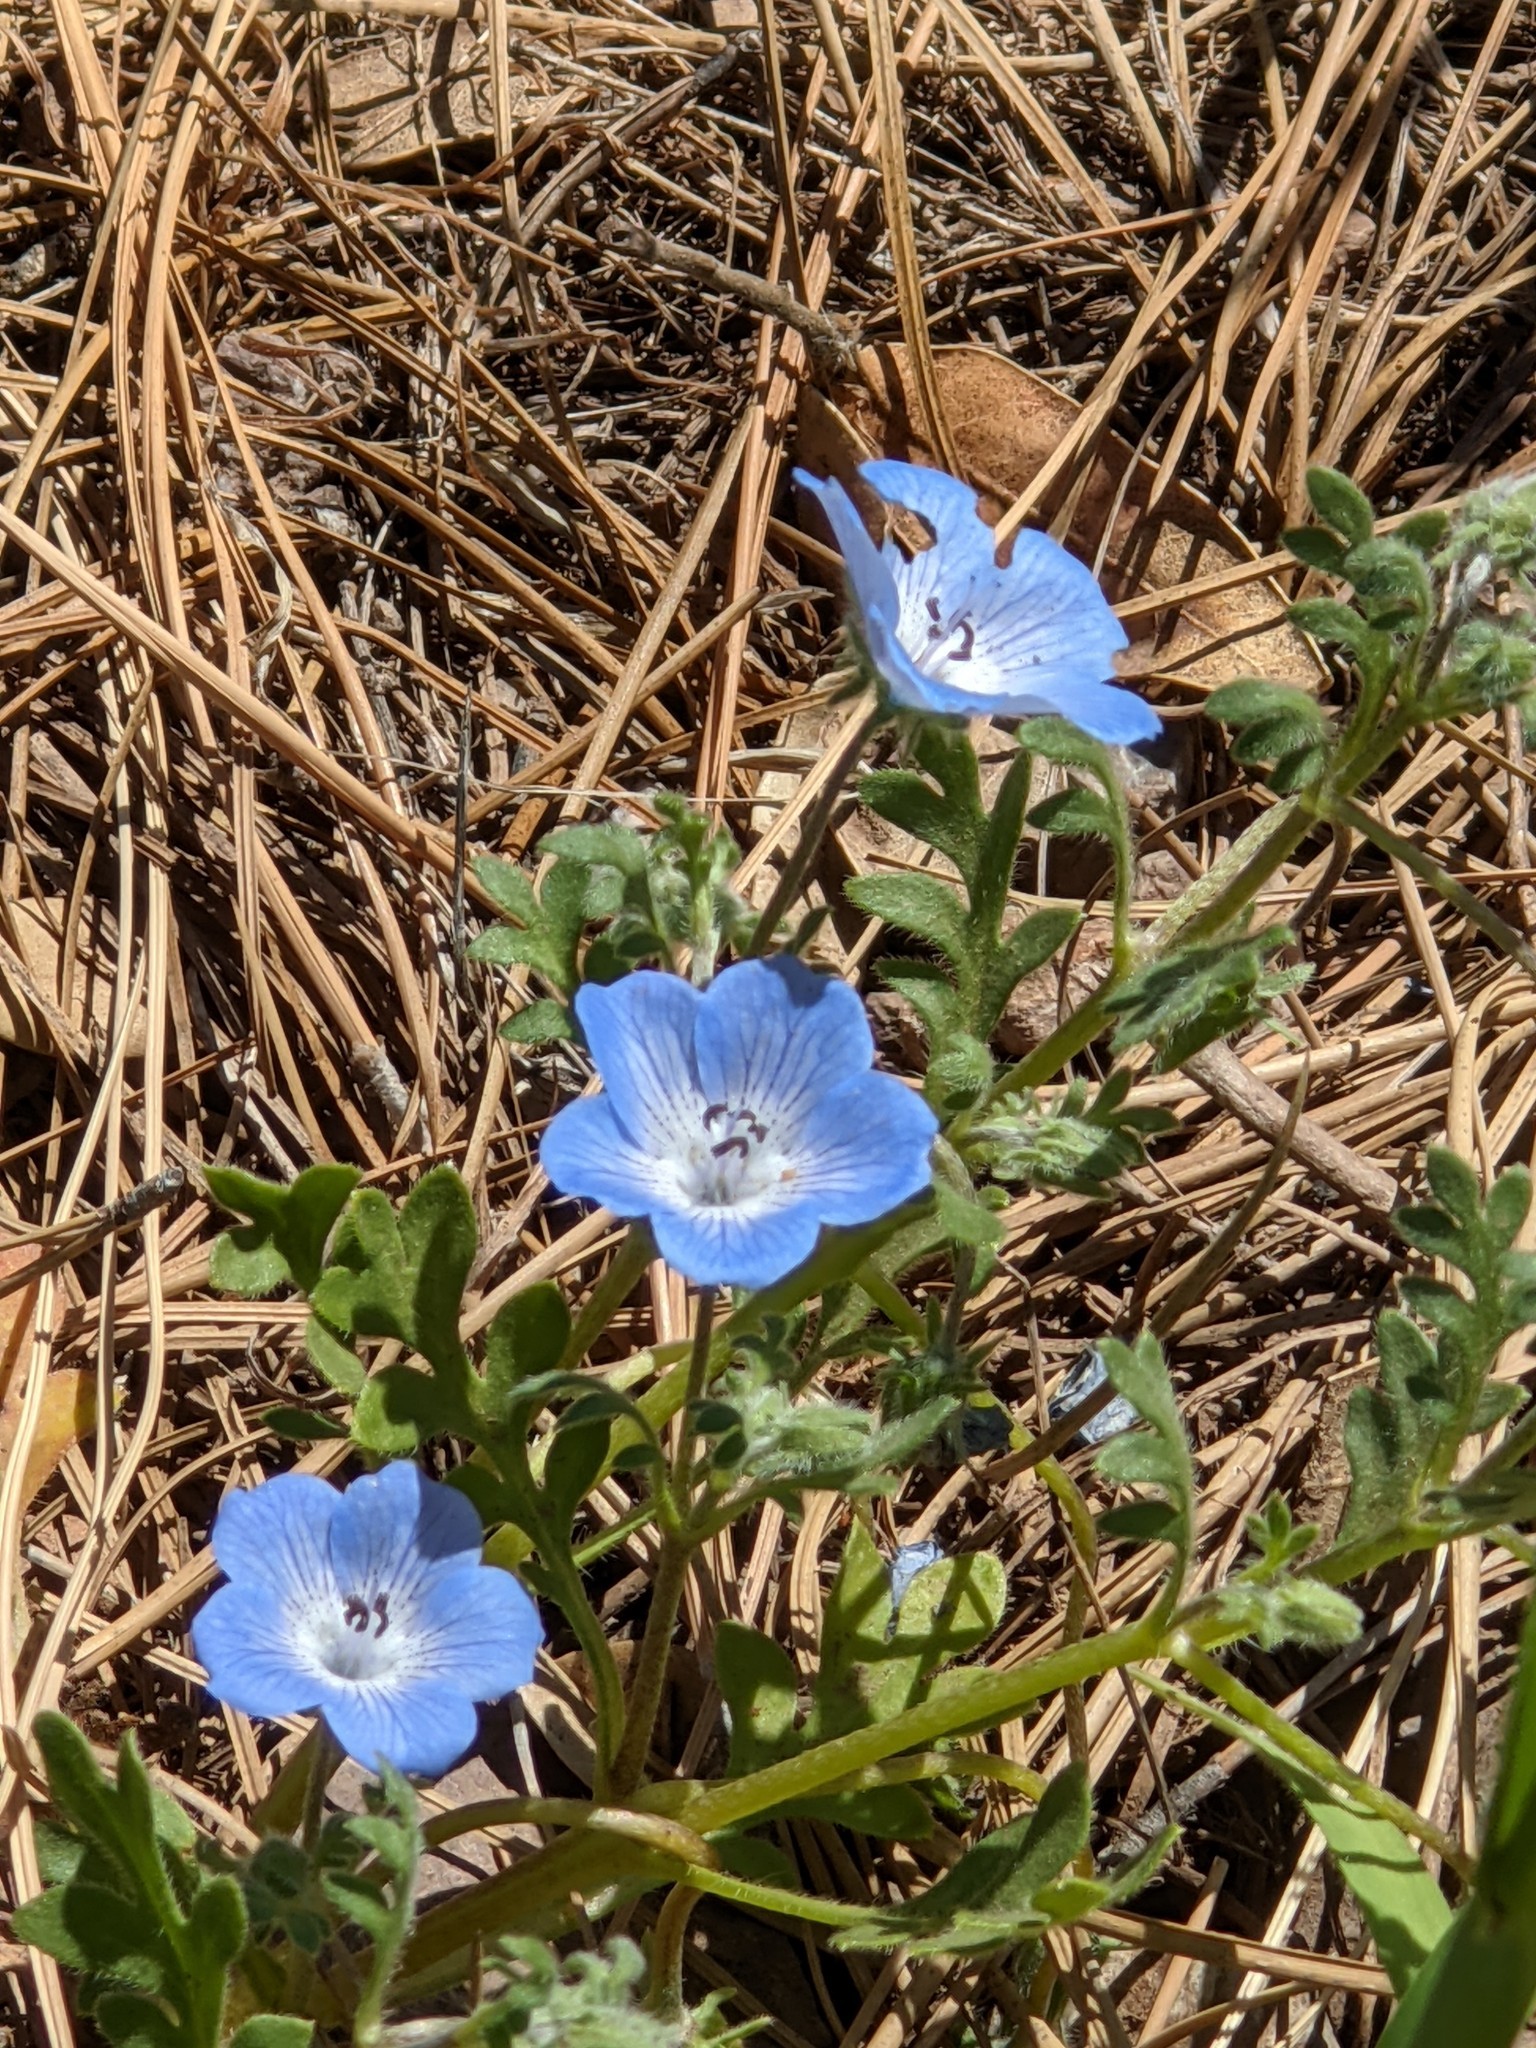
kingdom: Plantae
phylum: Tracheophyta
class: Magnoliopsida
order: Boraginales
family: Hydrophyllaceae
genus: Nemophila
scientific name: Nemophila menziesii
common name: Baby's-blue-eyes
